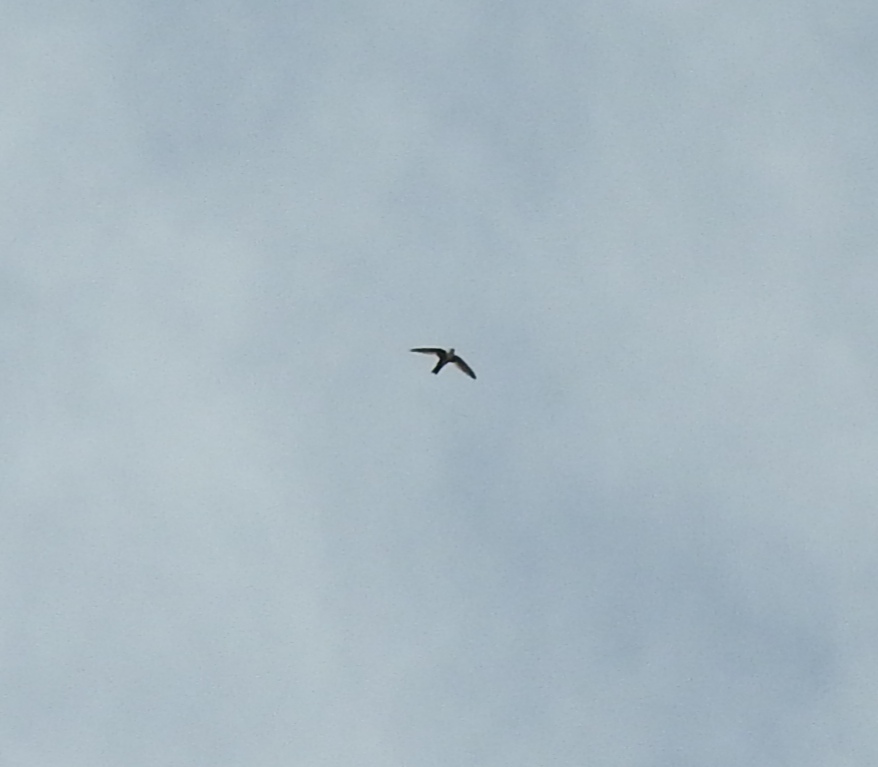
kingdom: Animalia
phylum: Chordata
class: Aves
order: Apodiformes
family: Apodidae
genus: Aeronautes
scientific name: Aeronautes saxatalis
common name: White-throated swift
